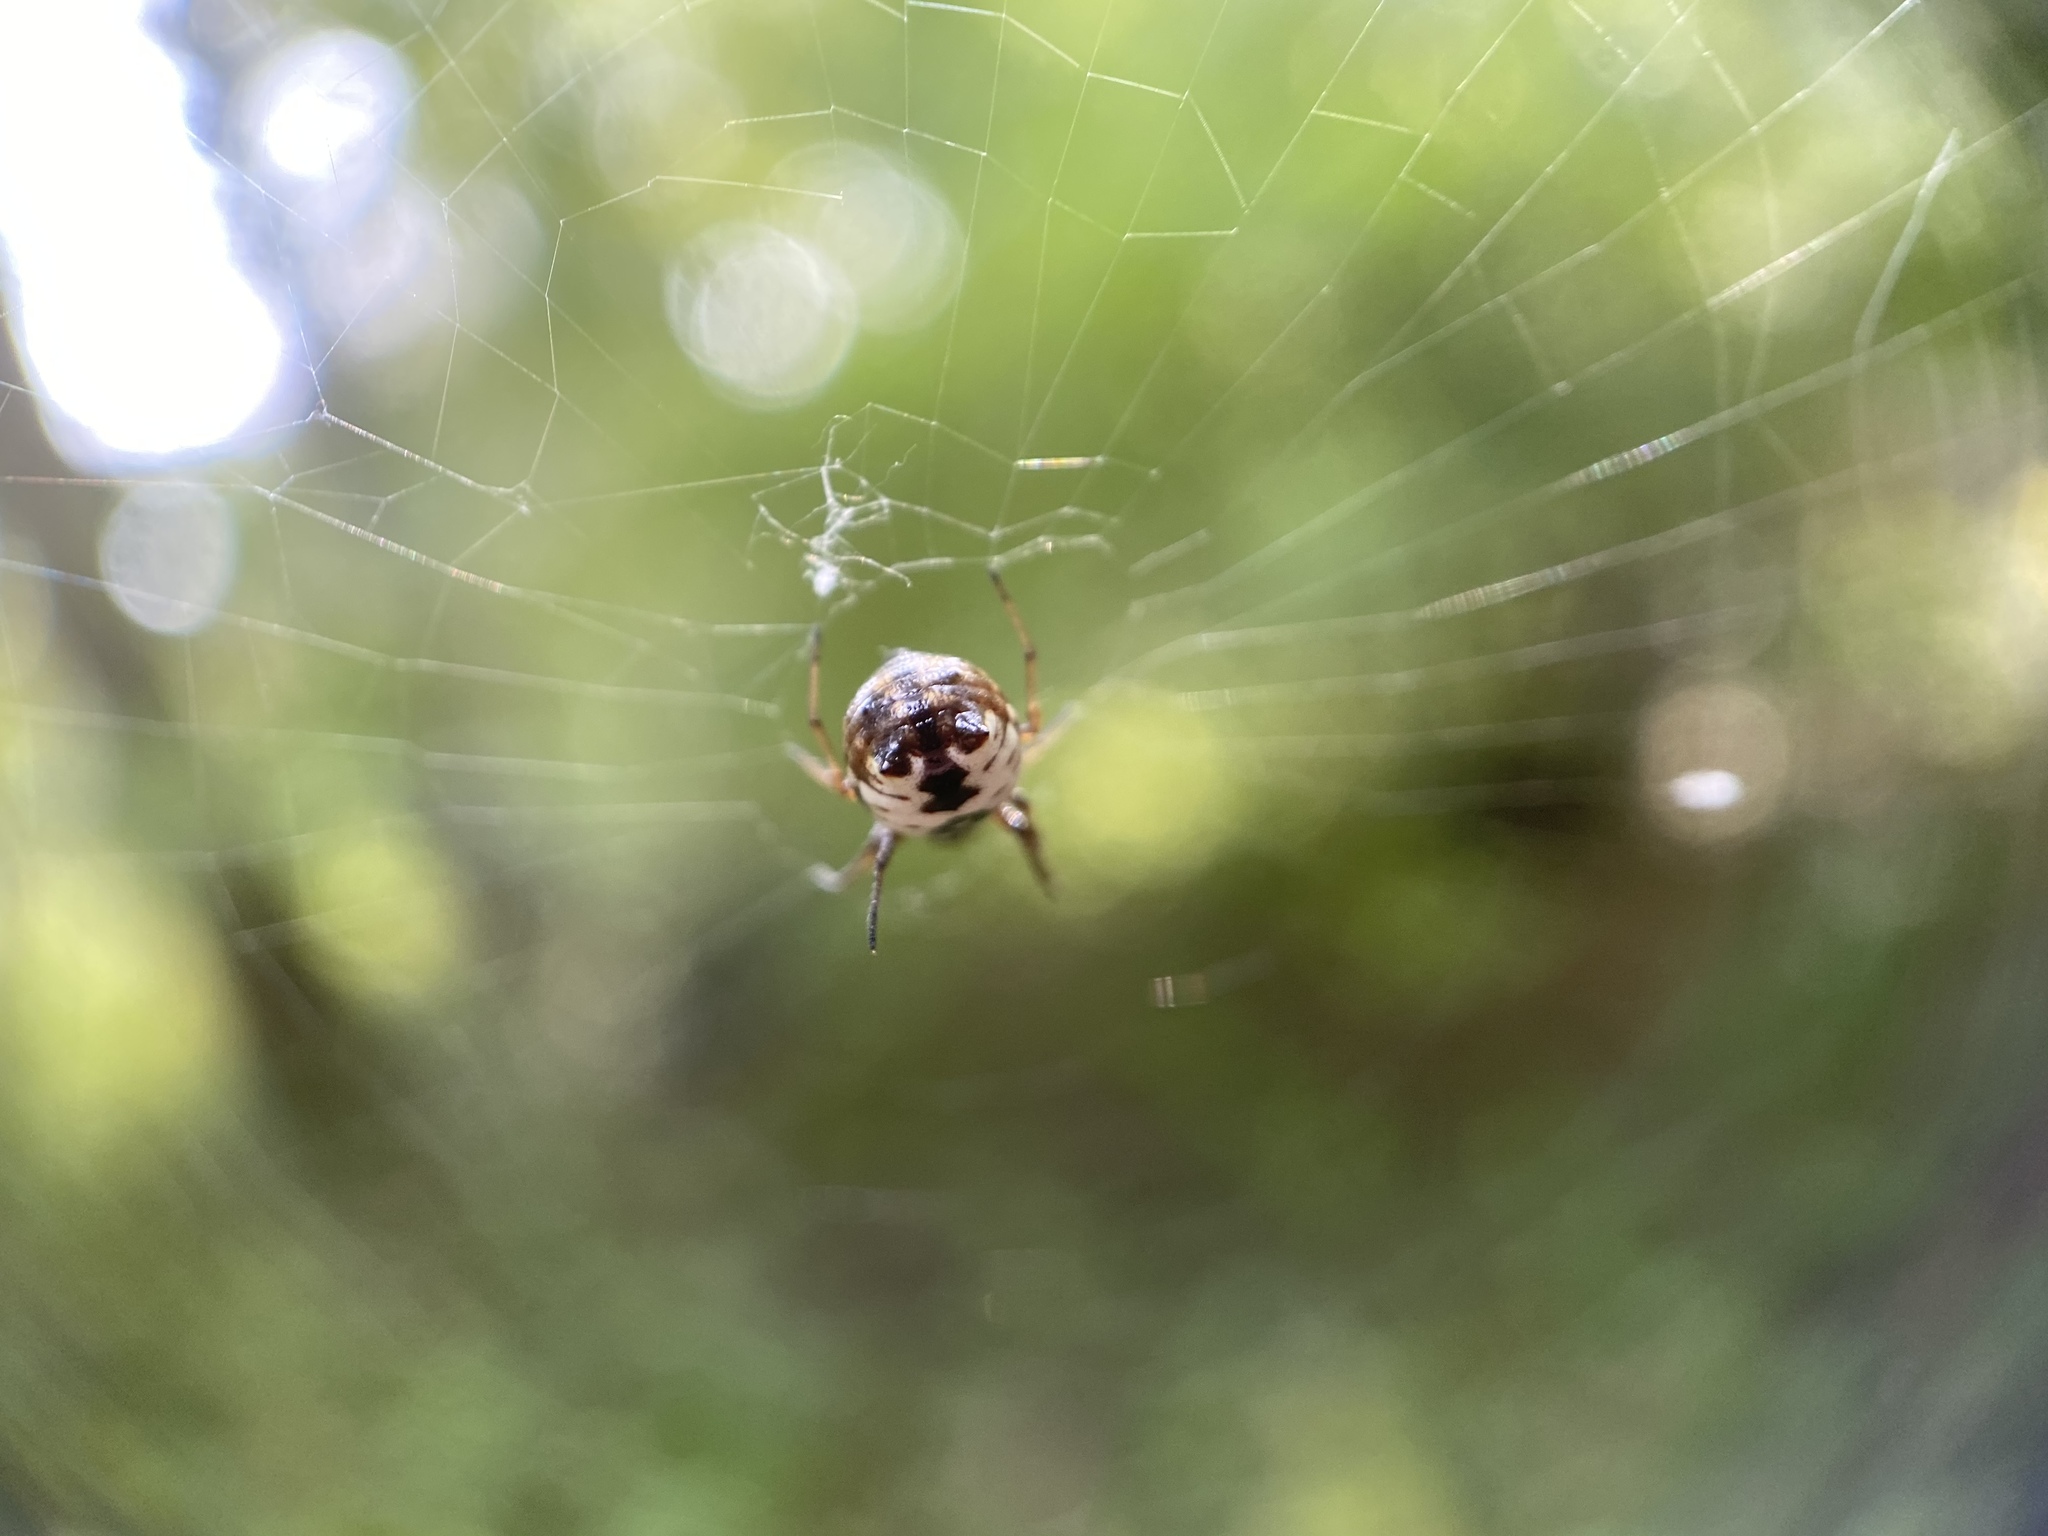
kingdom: Animalia
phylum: Arthropoda
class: Arachnida
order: Araneae
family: Araneidae
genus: Micrathena
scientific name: Micrathena mitrata
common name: Orb weavers
